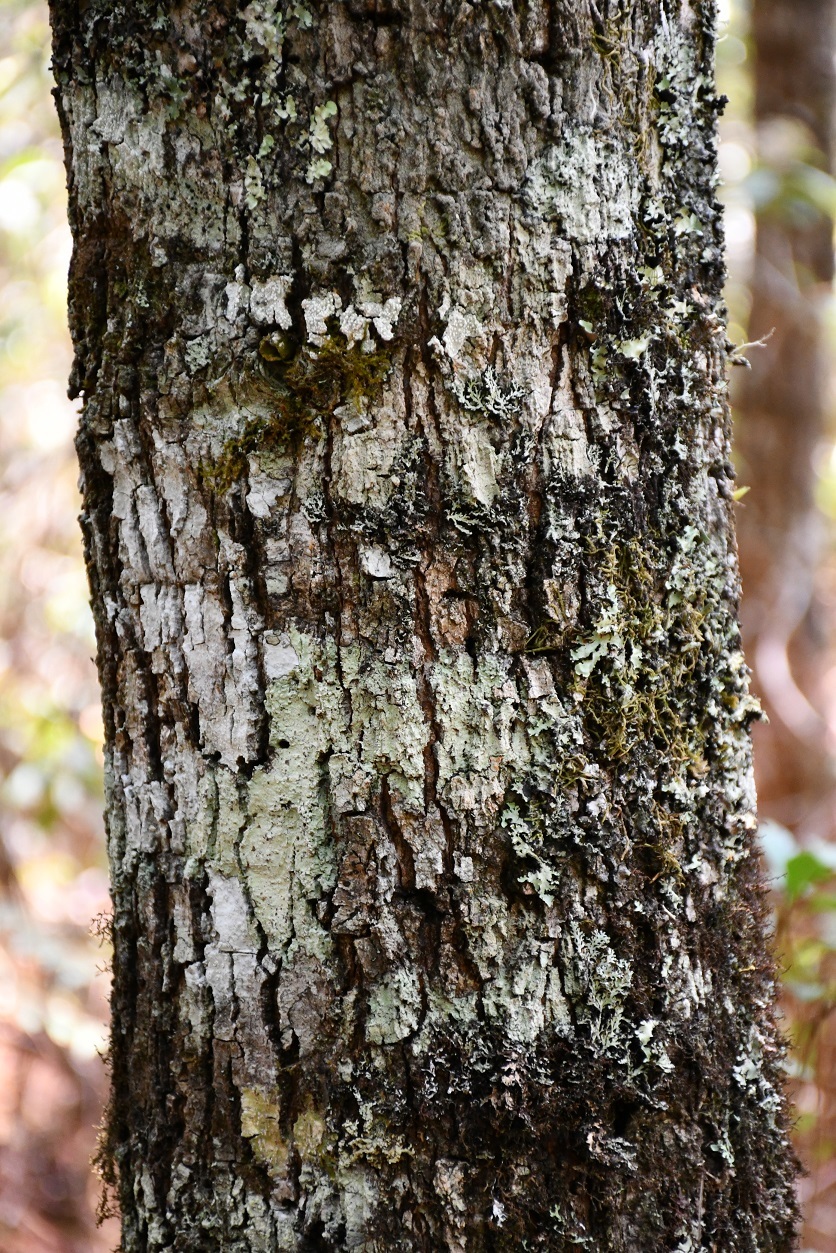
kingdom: Plantae
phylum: Tracheophyta
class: Magnoliopsida
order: Fagales
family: Fagaceae
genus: Quercus
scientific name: Quercus sapotifolia
